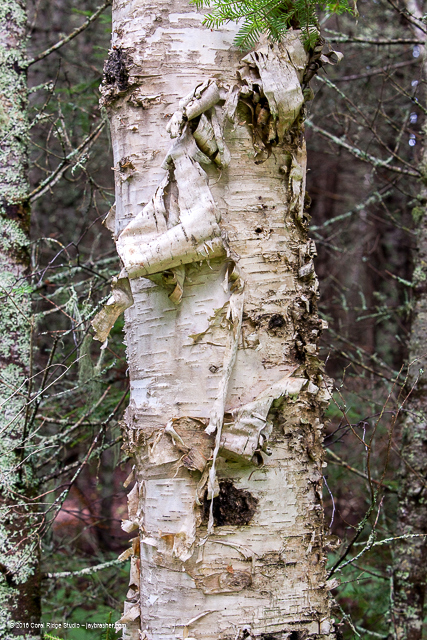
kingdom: Plantae
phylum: Tracheophyta
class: Magnoliopsida
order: Fagales
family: Betulaceae
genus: Betula
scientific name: Betula papyrifera
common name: Paper birch
